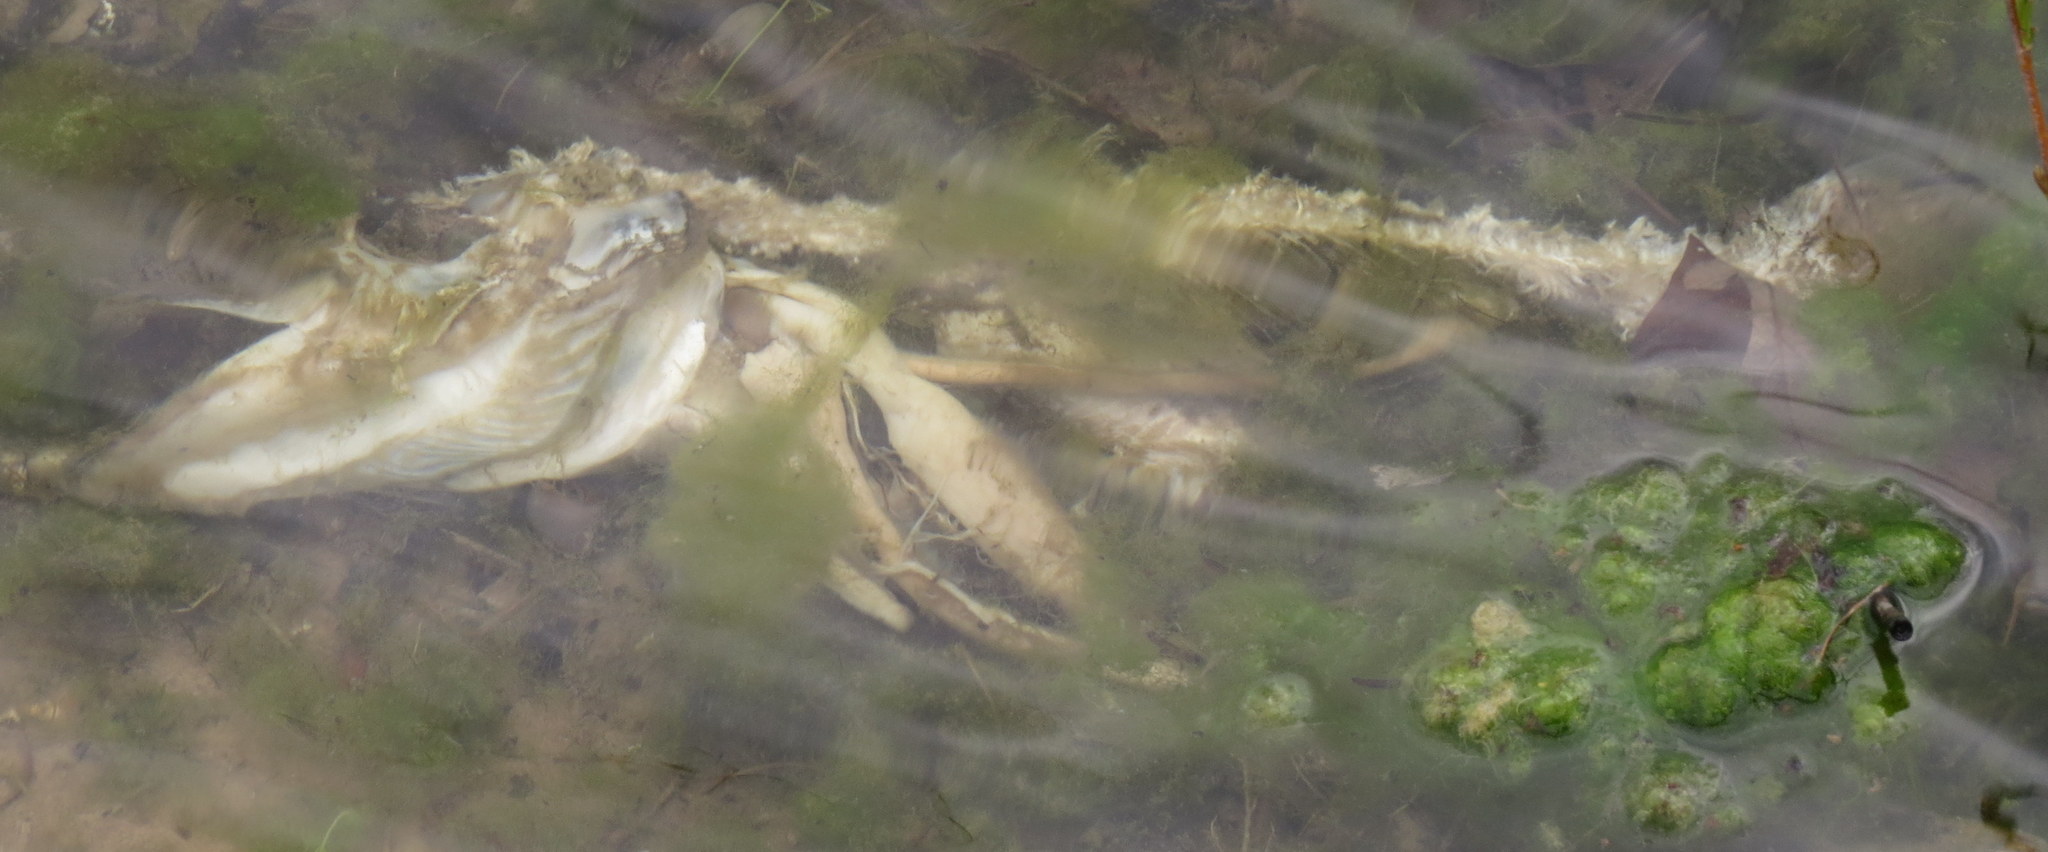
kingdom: Animalia
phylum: Chordata
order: Esociformes
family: Esocidae
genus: Esox
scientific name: Esox lucius
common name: Northern pike
